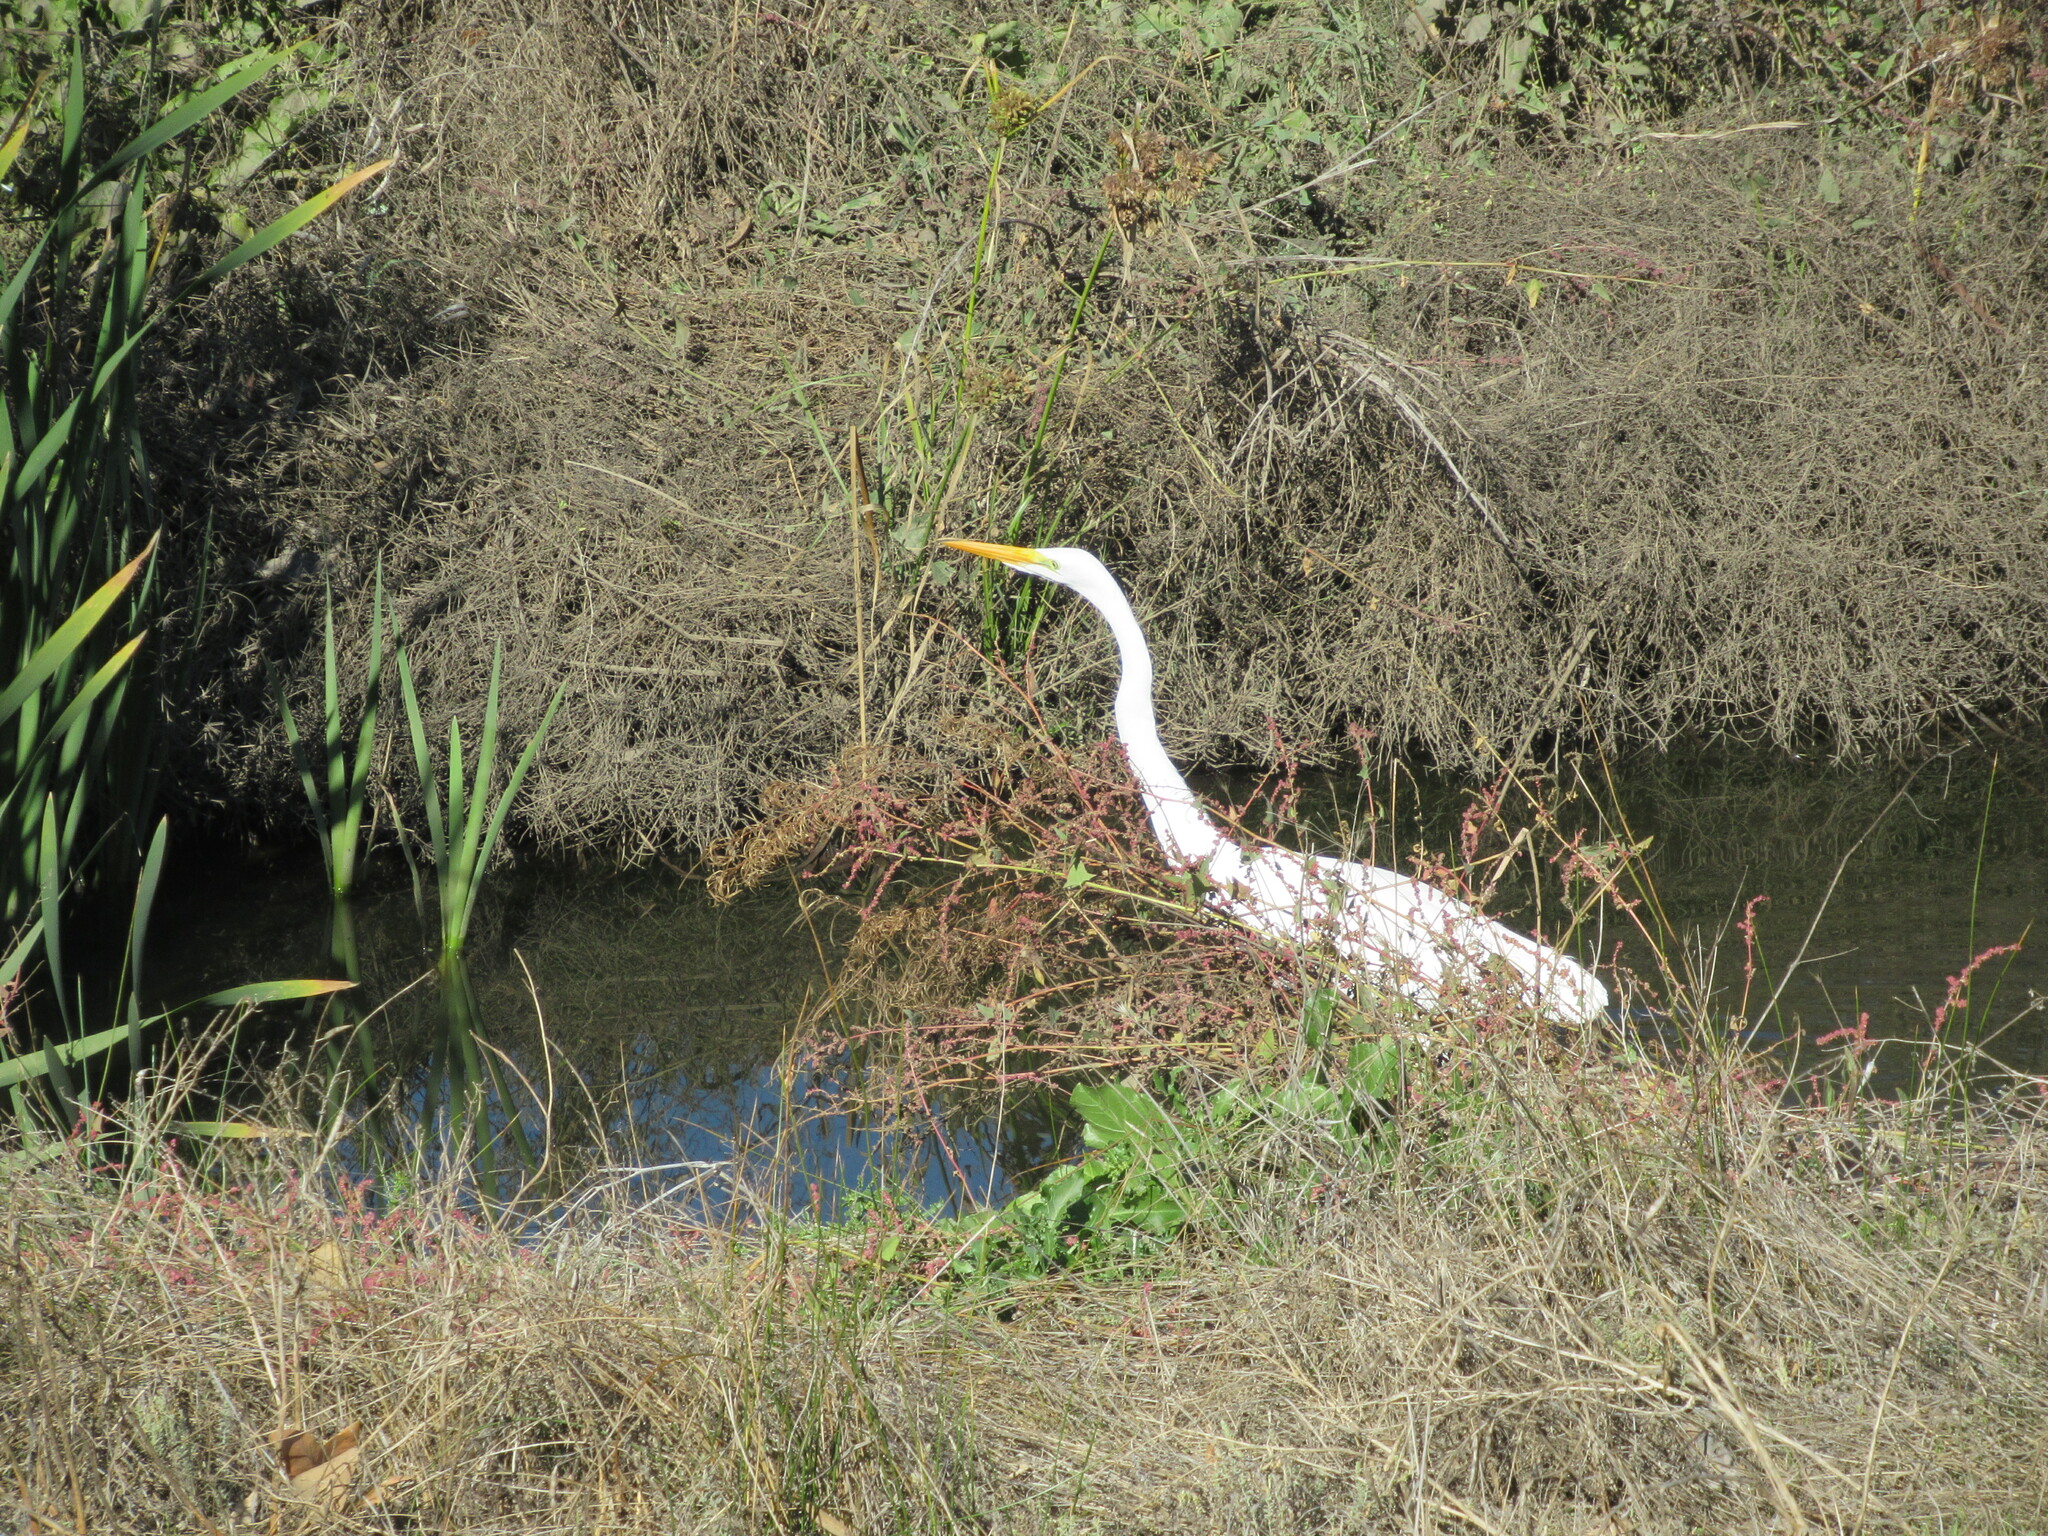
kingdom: Animalia
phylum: Chordata
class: Aves
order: Pelecaniformes
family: Ardeidae
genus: Ardea
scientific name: Ardea alba
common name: Great egret
